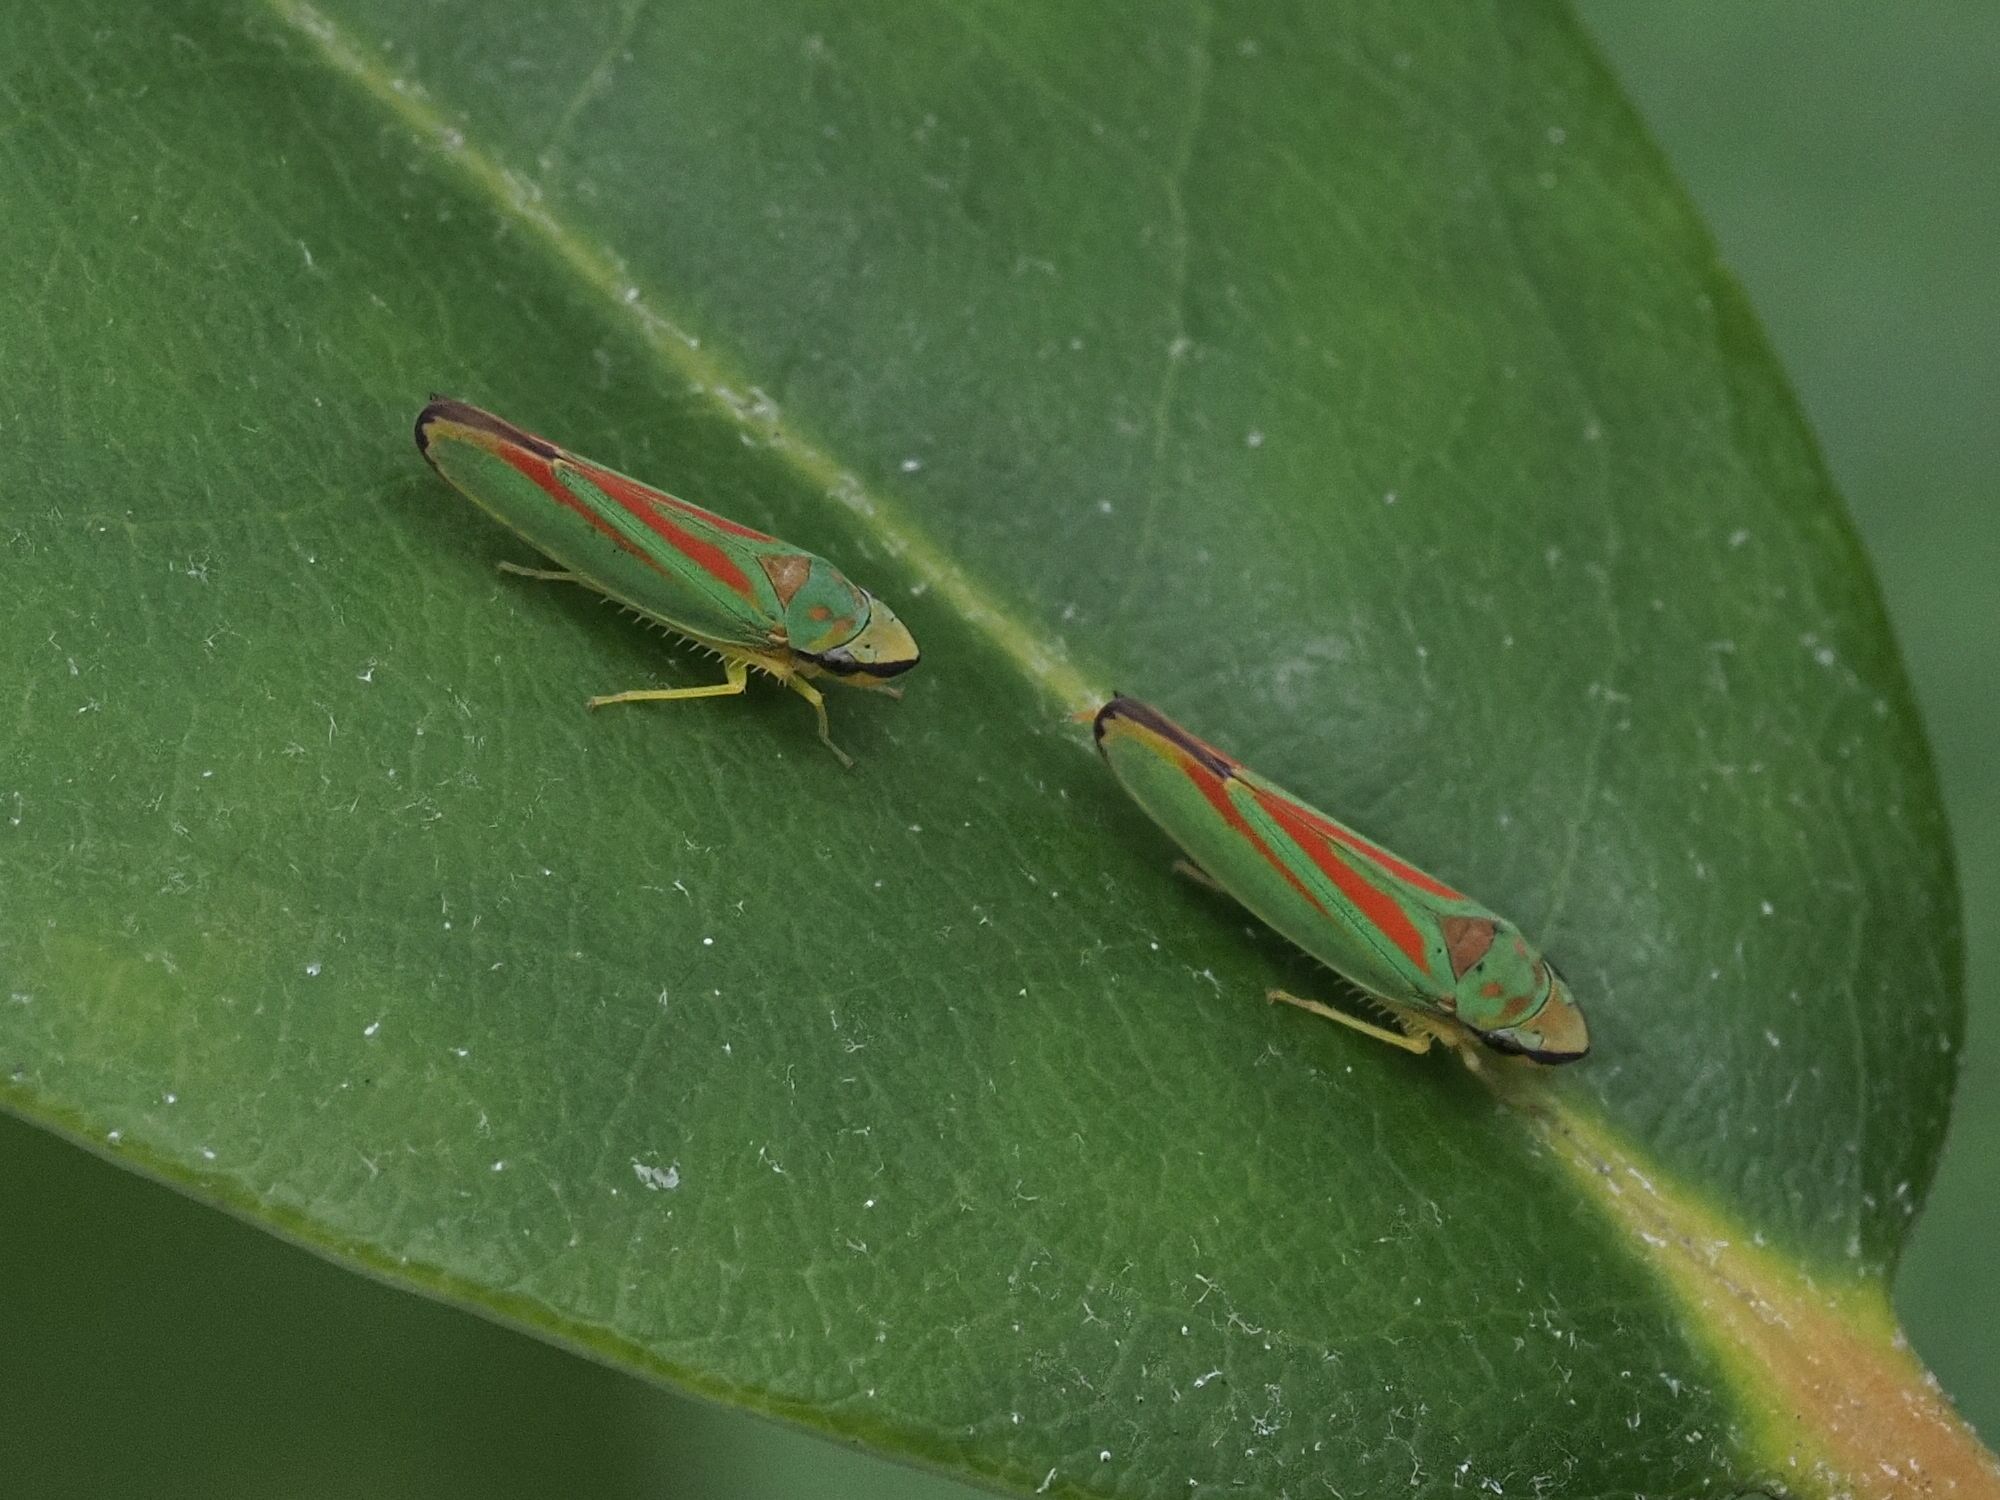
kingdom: Animalia
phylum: Arthropoda
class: Insecta
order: Hemiptera
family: Cicadellidae
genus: Graphocephala
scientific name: Graphocephala fennahi
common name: Rhododendron leafhopper
